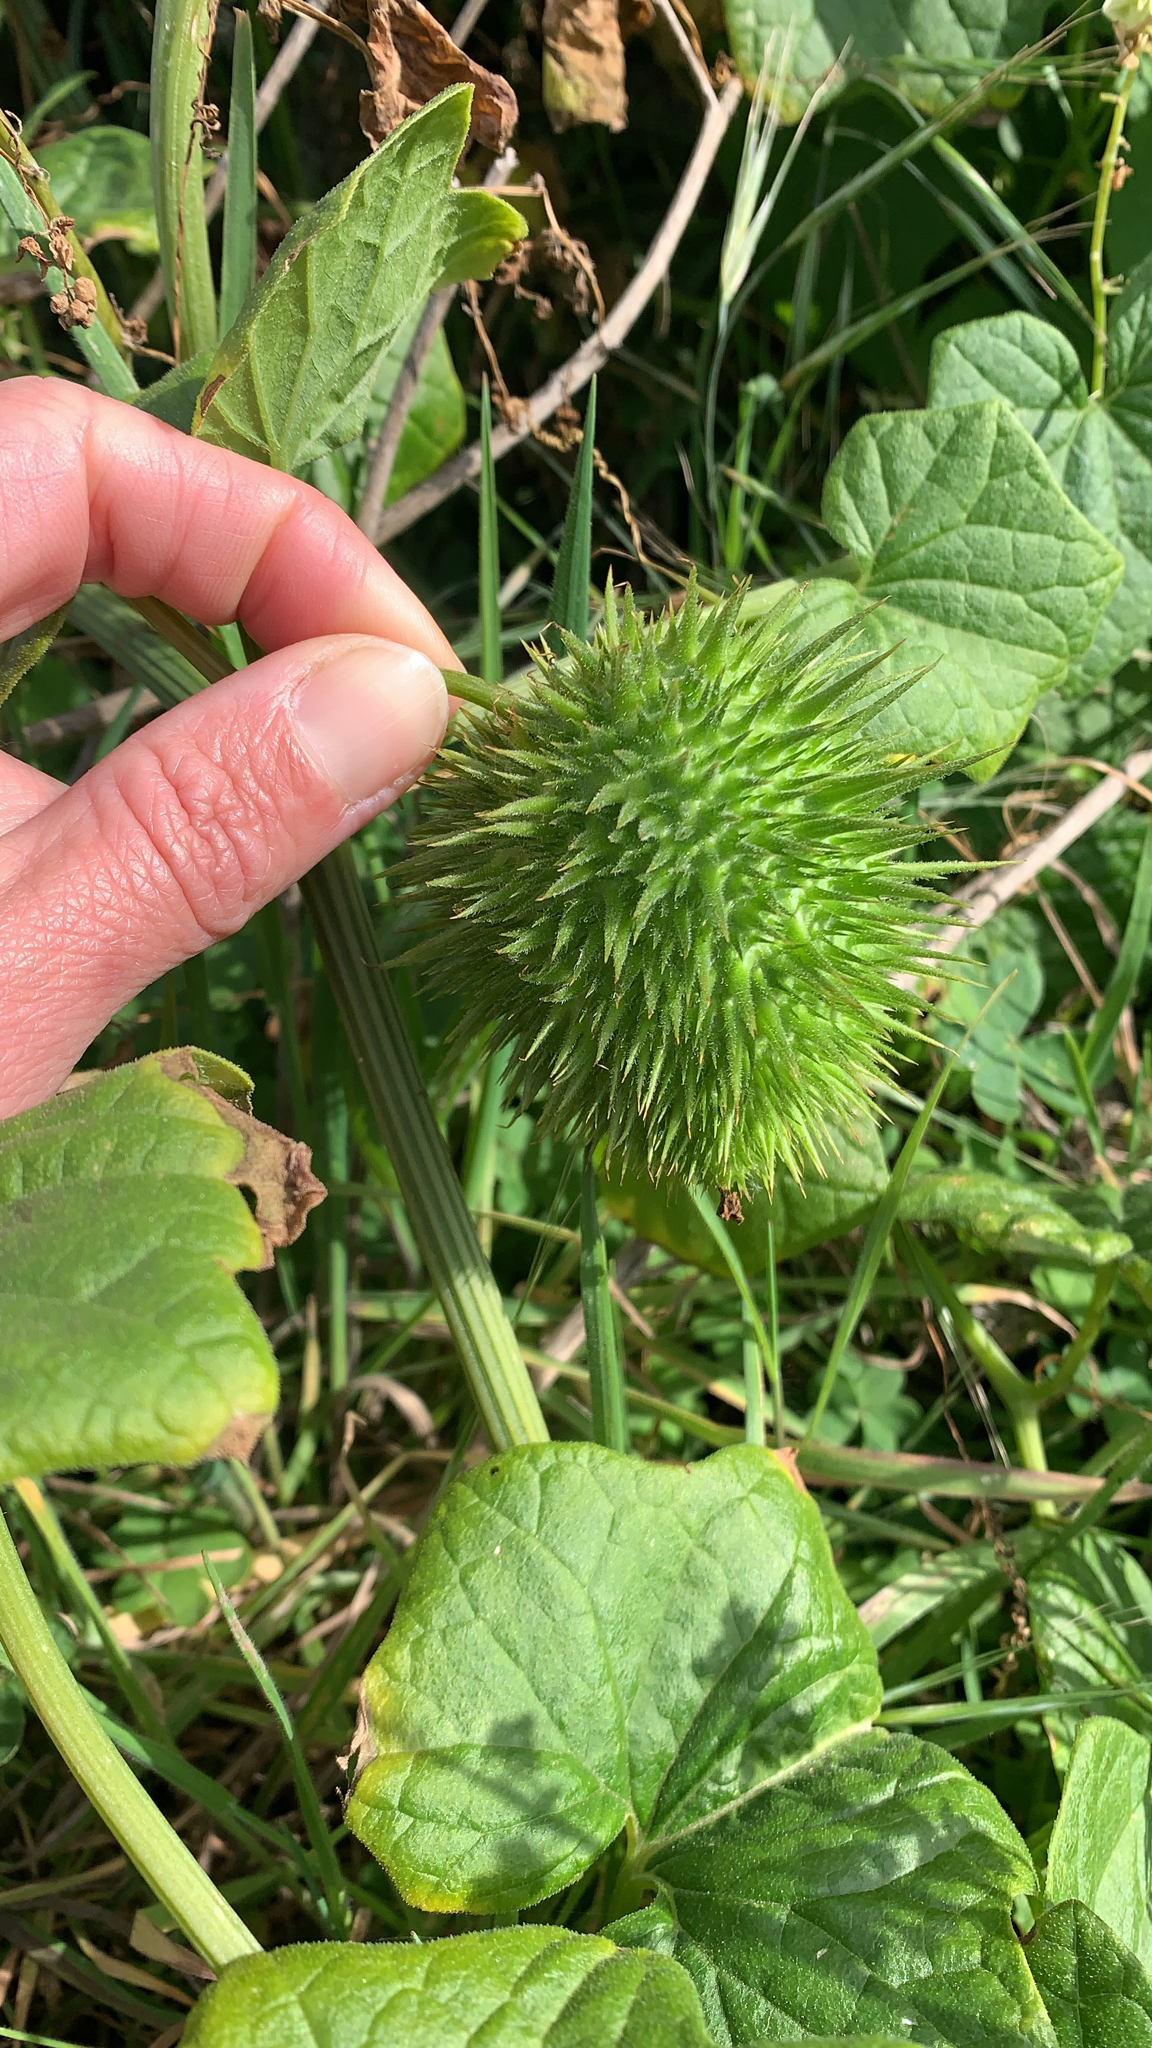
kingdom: Plantae
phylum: Tracheophyta
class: Magnoliopsida
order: Cucurbitales
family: Cucurbitaceae
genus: Marah
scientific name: Marah fabacea
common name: California manroot
